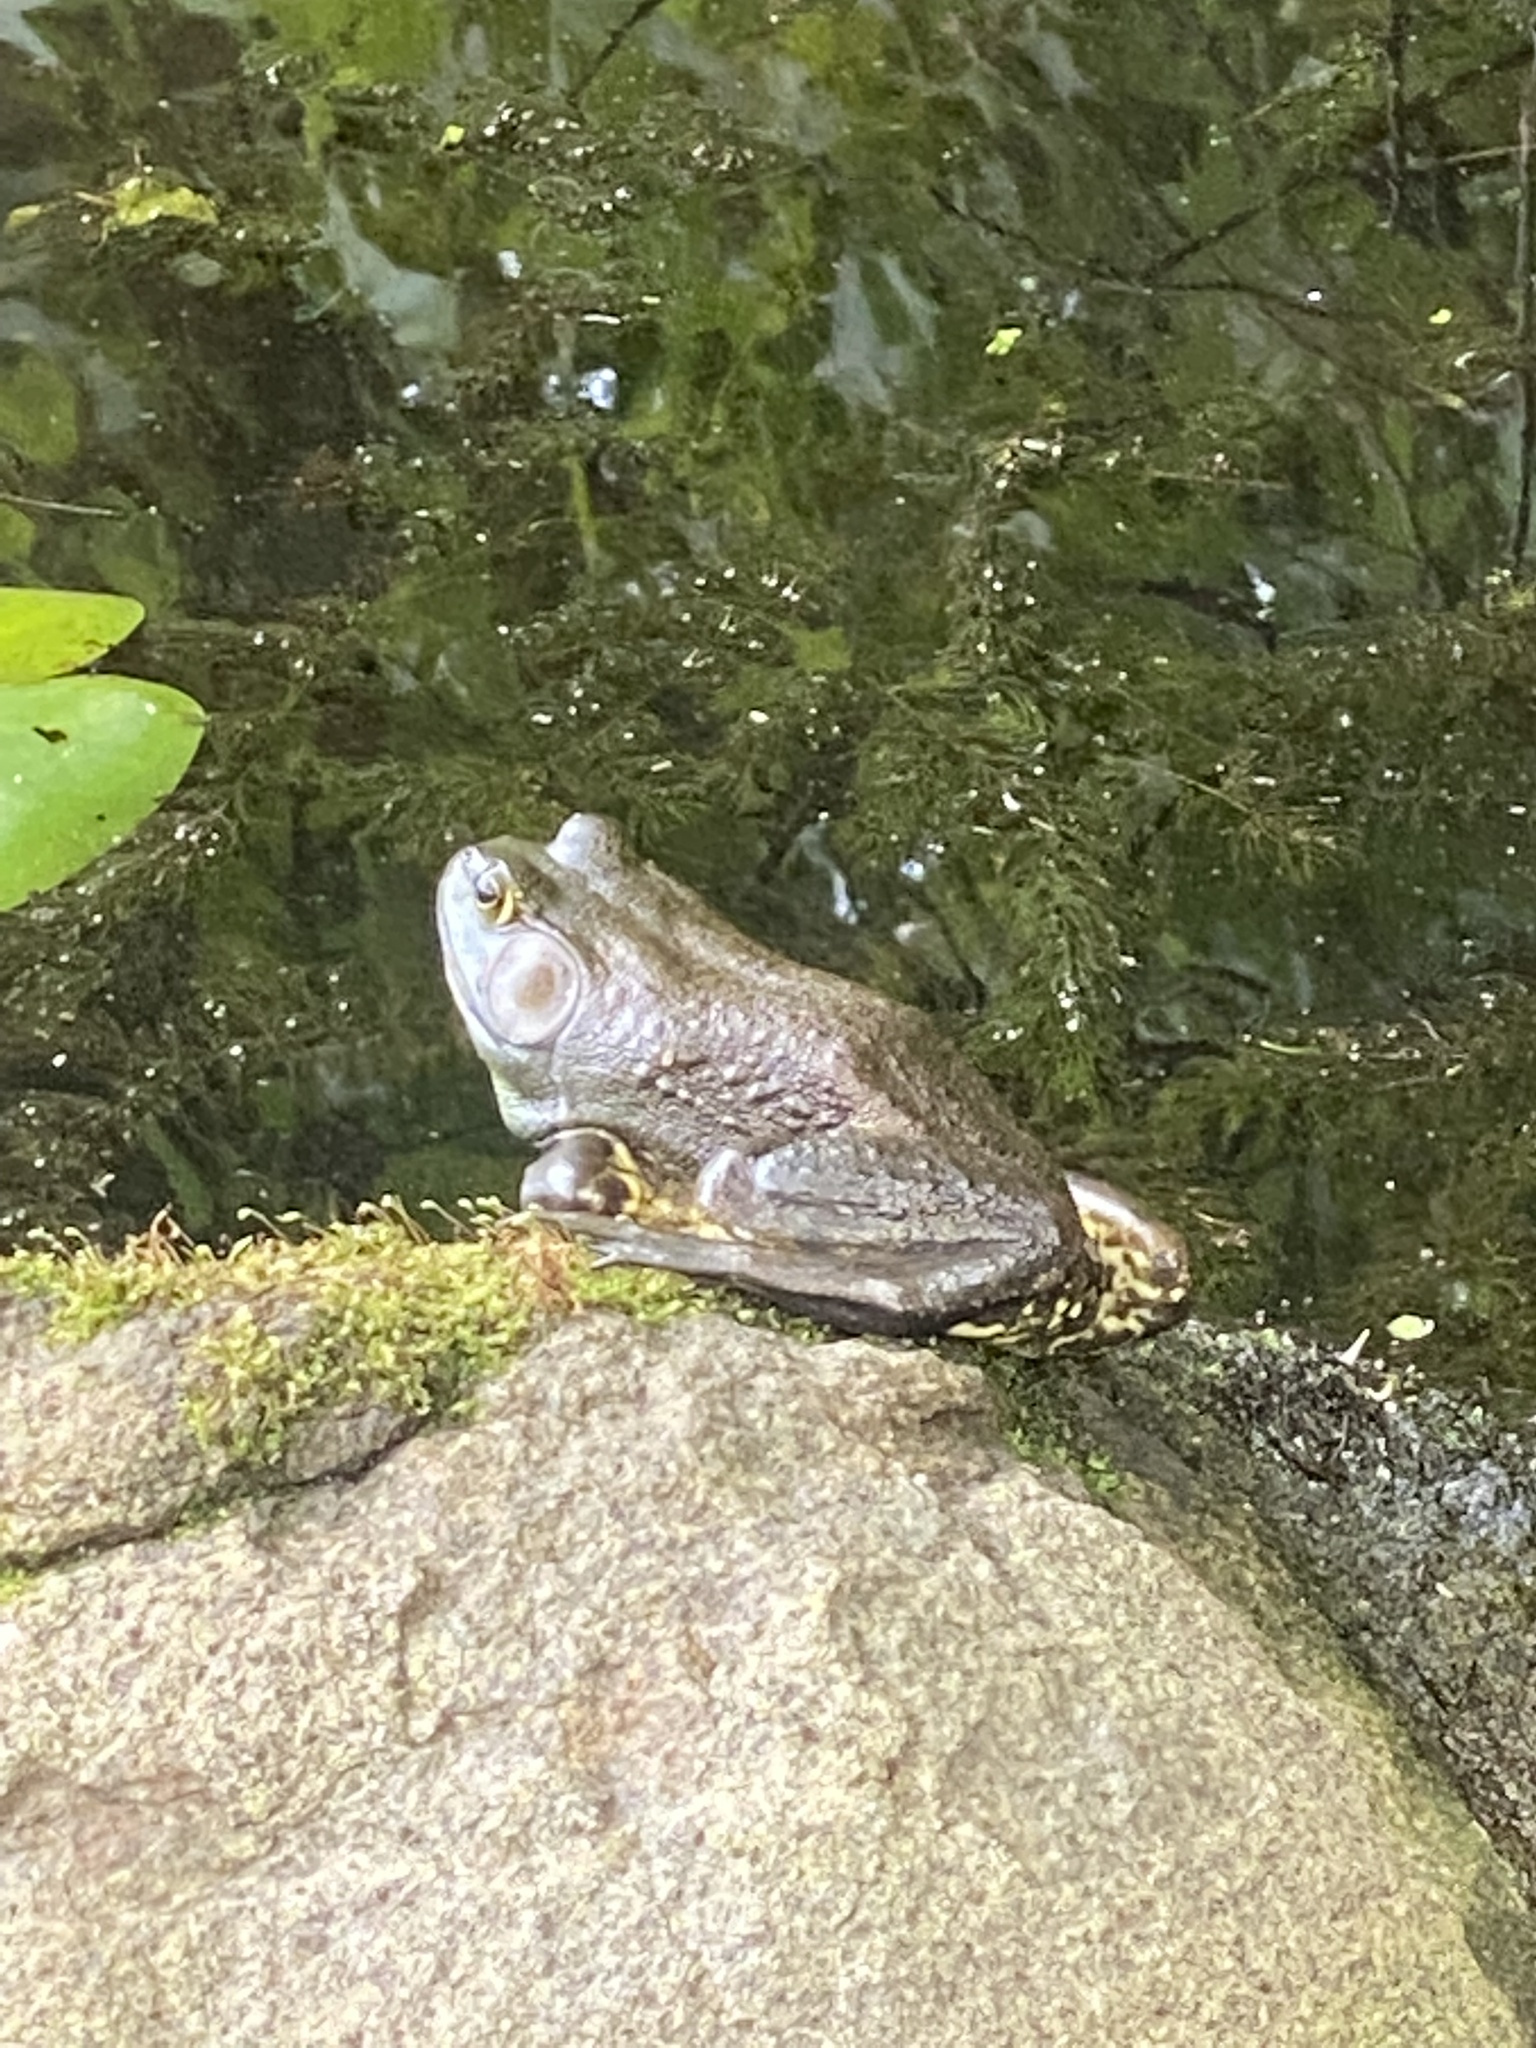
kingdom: Animalia
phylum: Chordata
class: Amphibia
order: Anura
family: Ranidae
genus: Lithobates
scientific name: Lithobates catesbeianus
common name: American bullfrog
